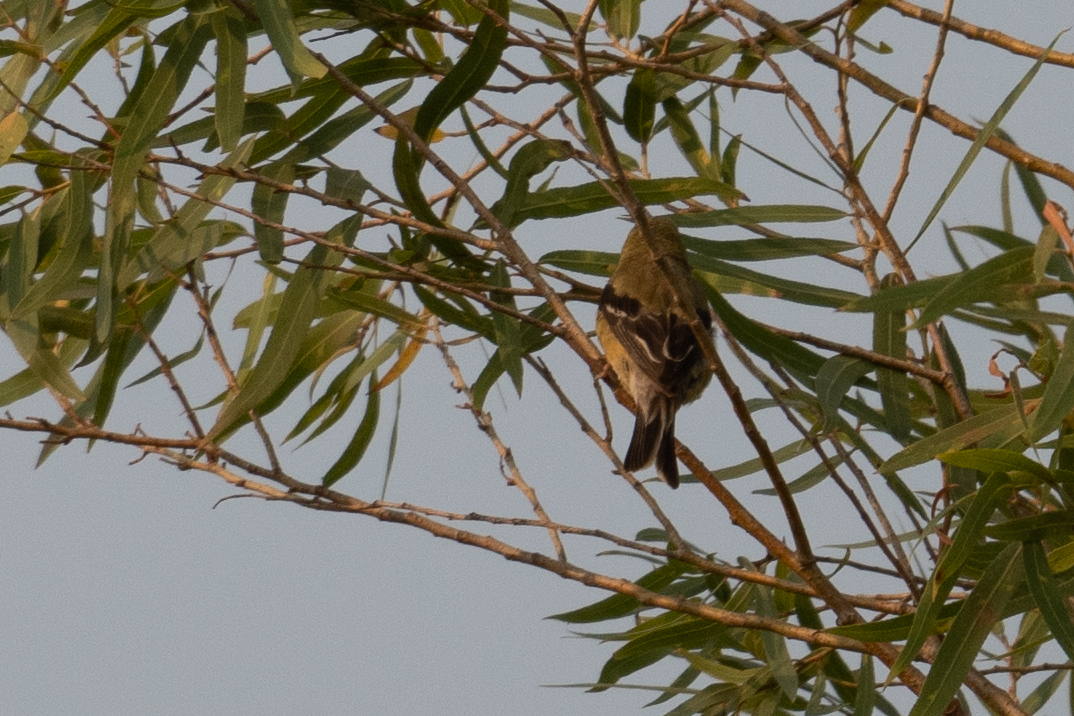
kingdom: Animalia
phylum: Chordata
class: Aves
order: Passeriformes
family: Fringillidae
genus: Spinus
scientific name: Spinus psaltria
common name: Lesser goldfinch
